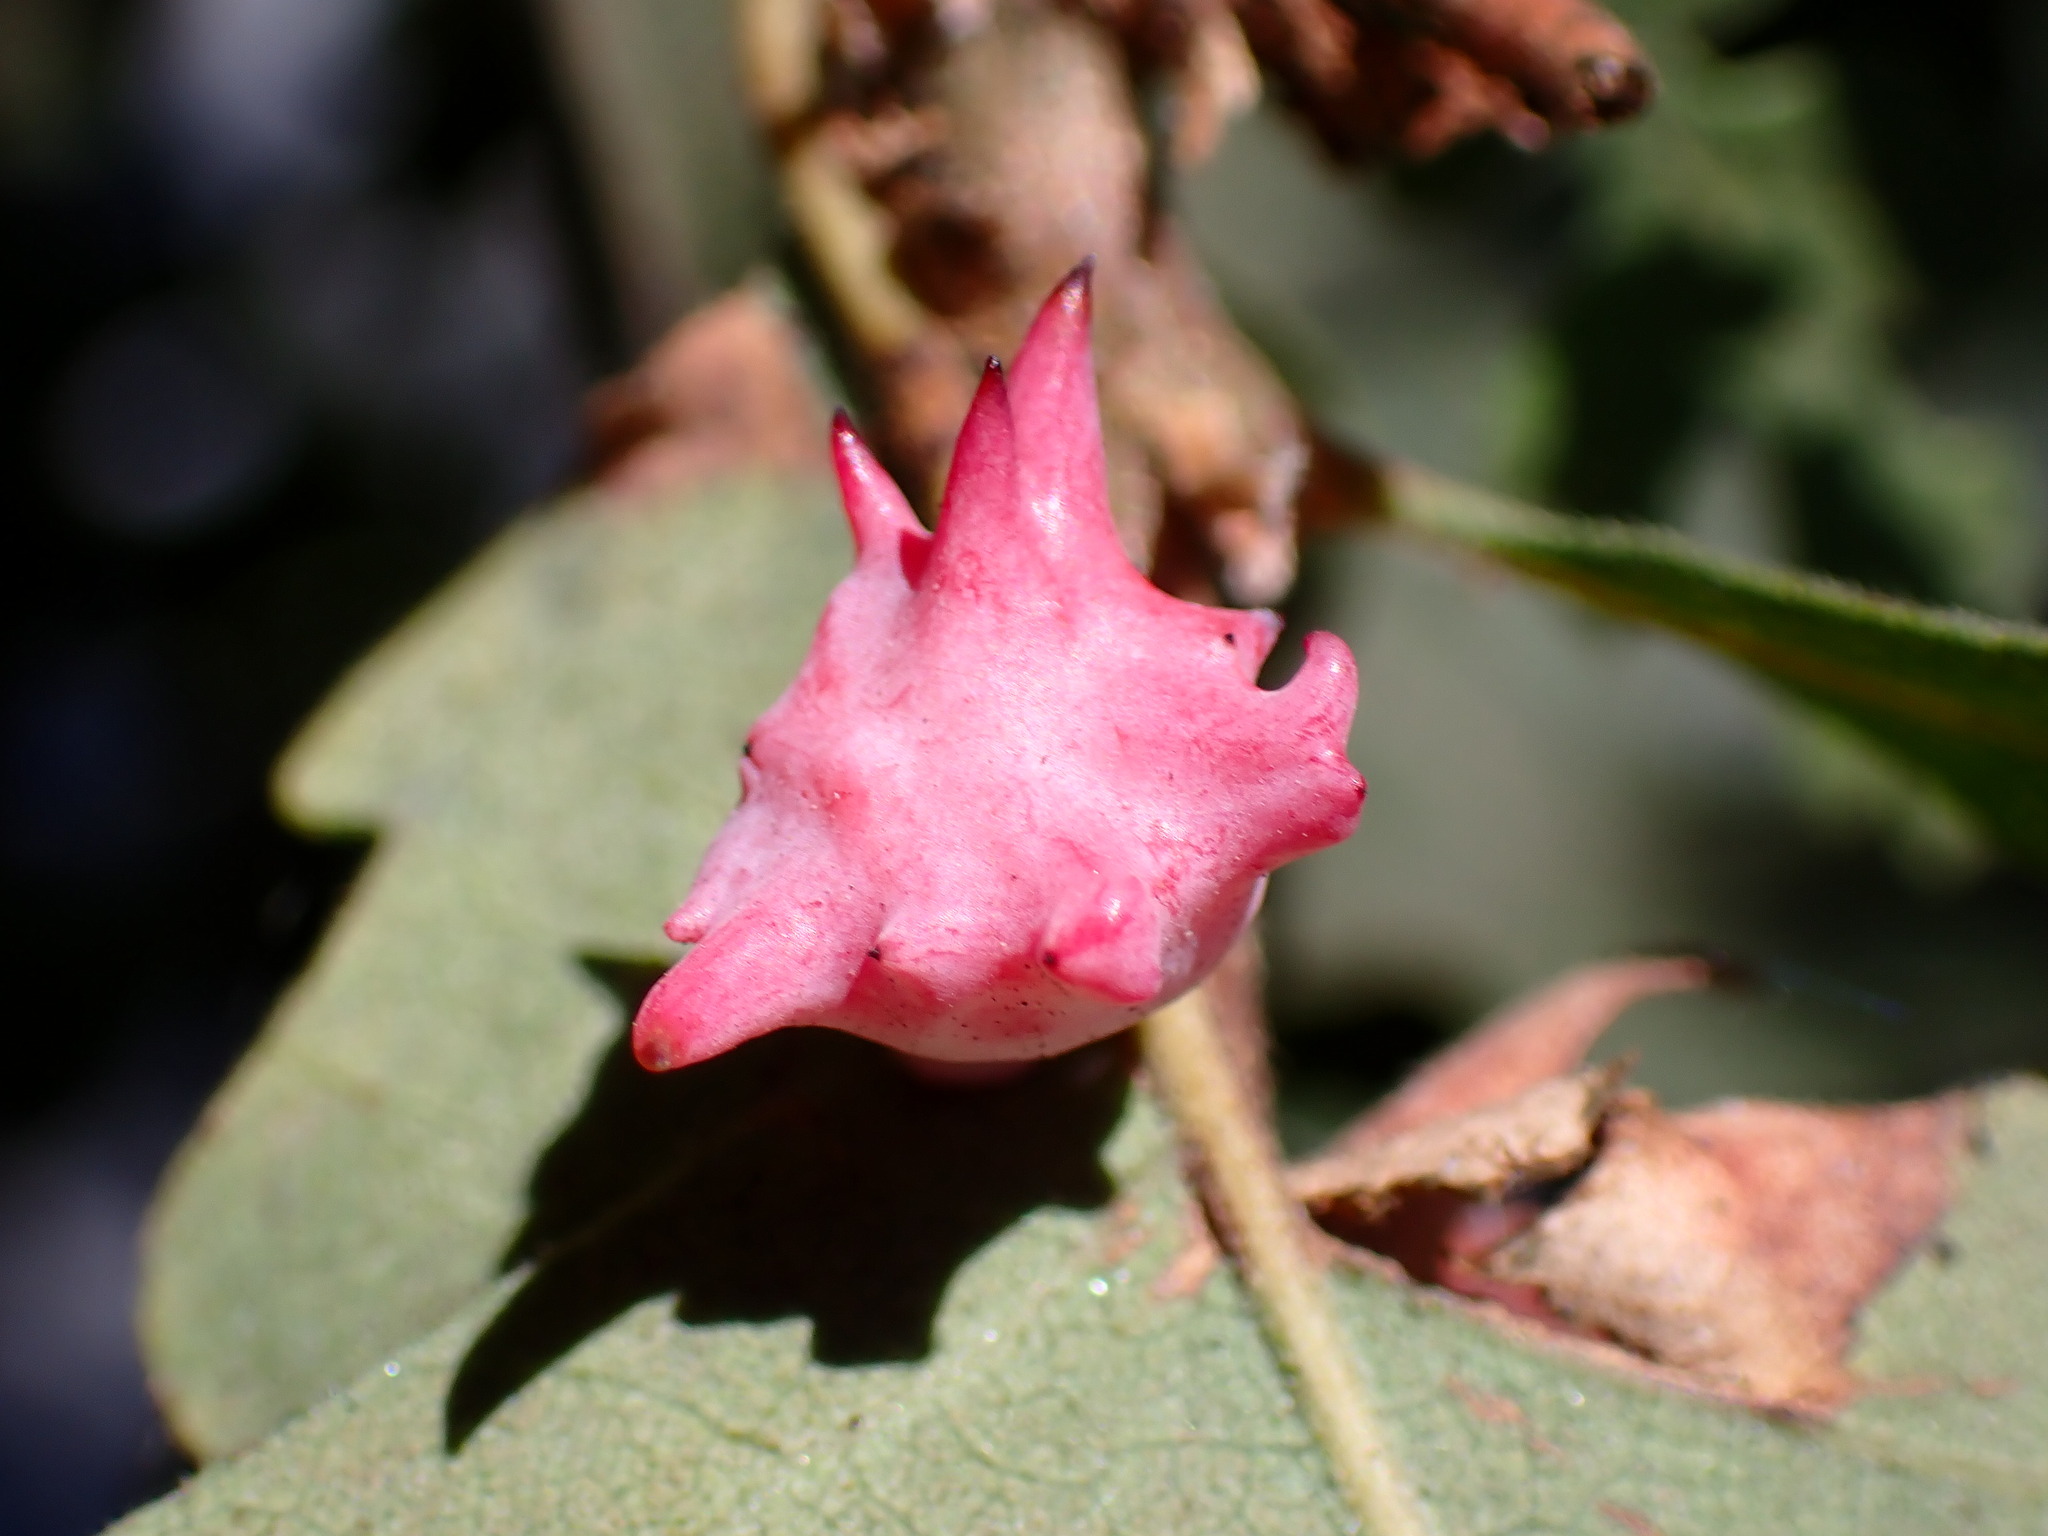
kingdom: Animalia
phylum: Arthropoda
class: Insecta
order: Hymenoptera
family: Cynipidae
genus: Cynips
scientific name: Cynips douglasi
